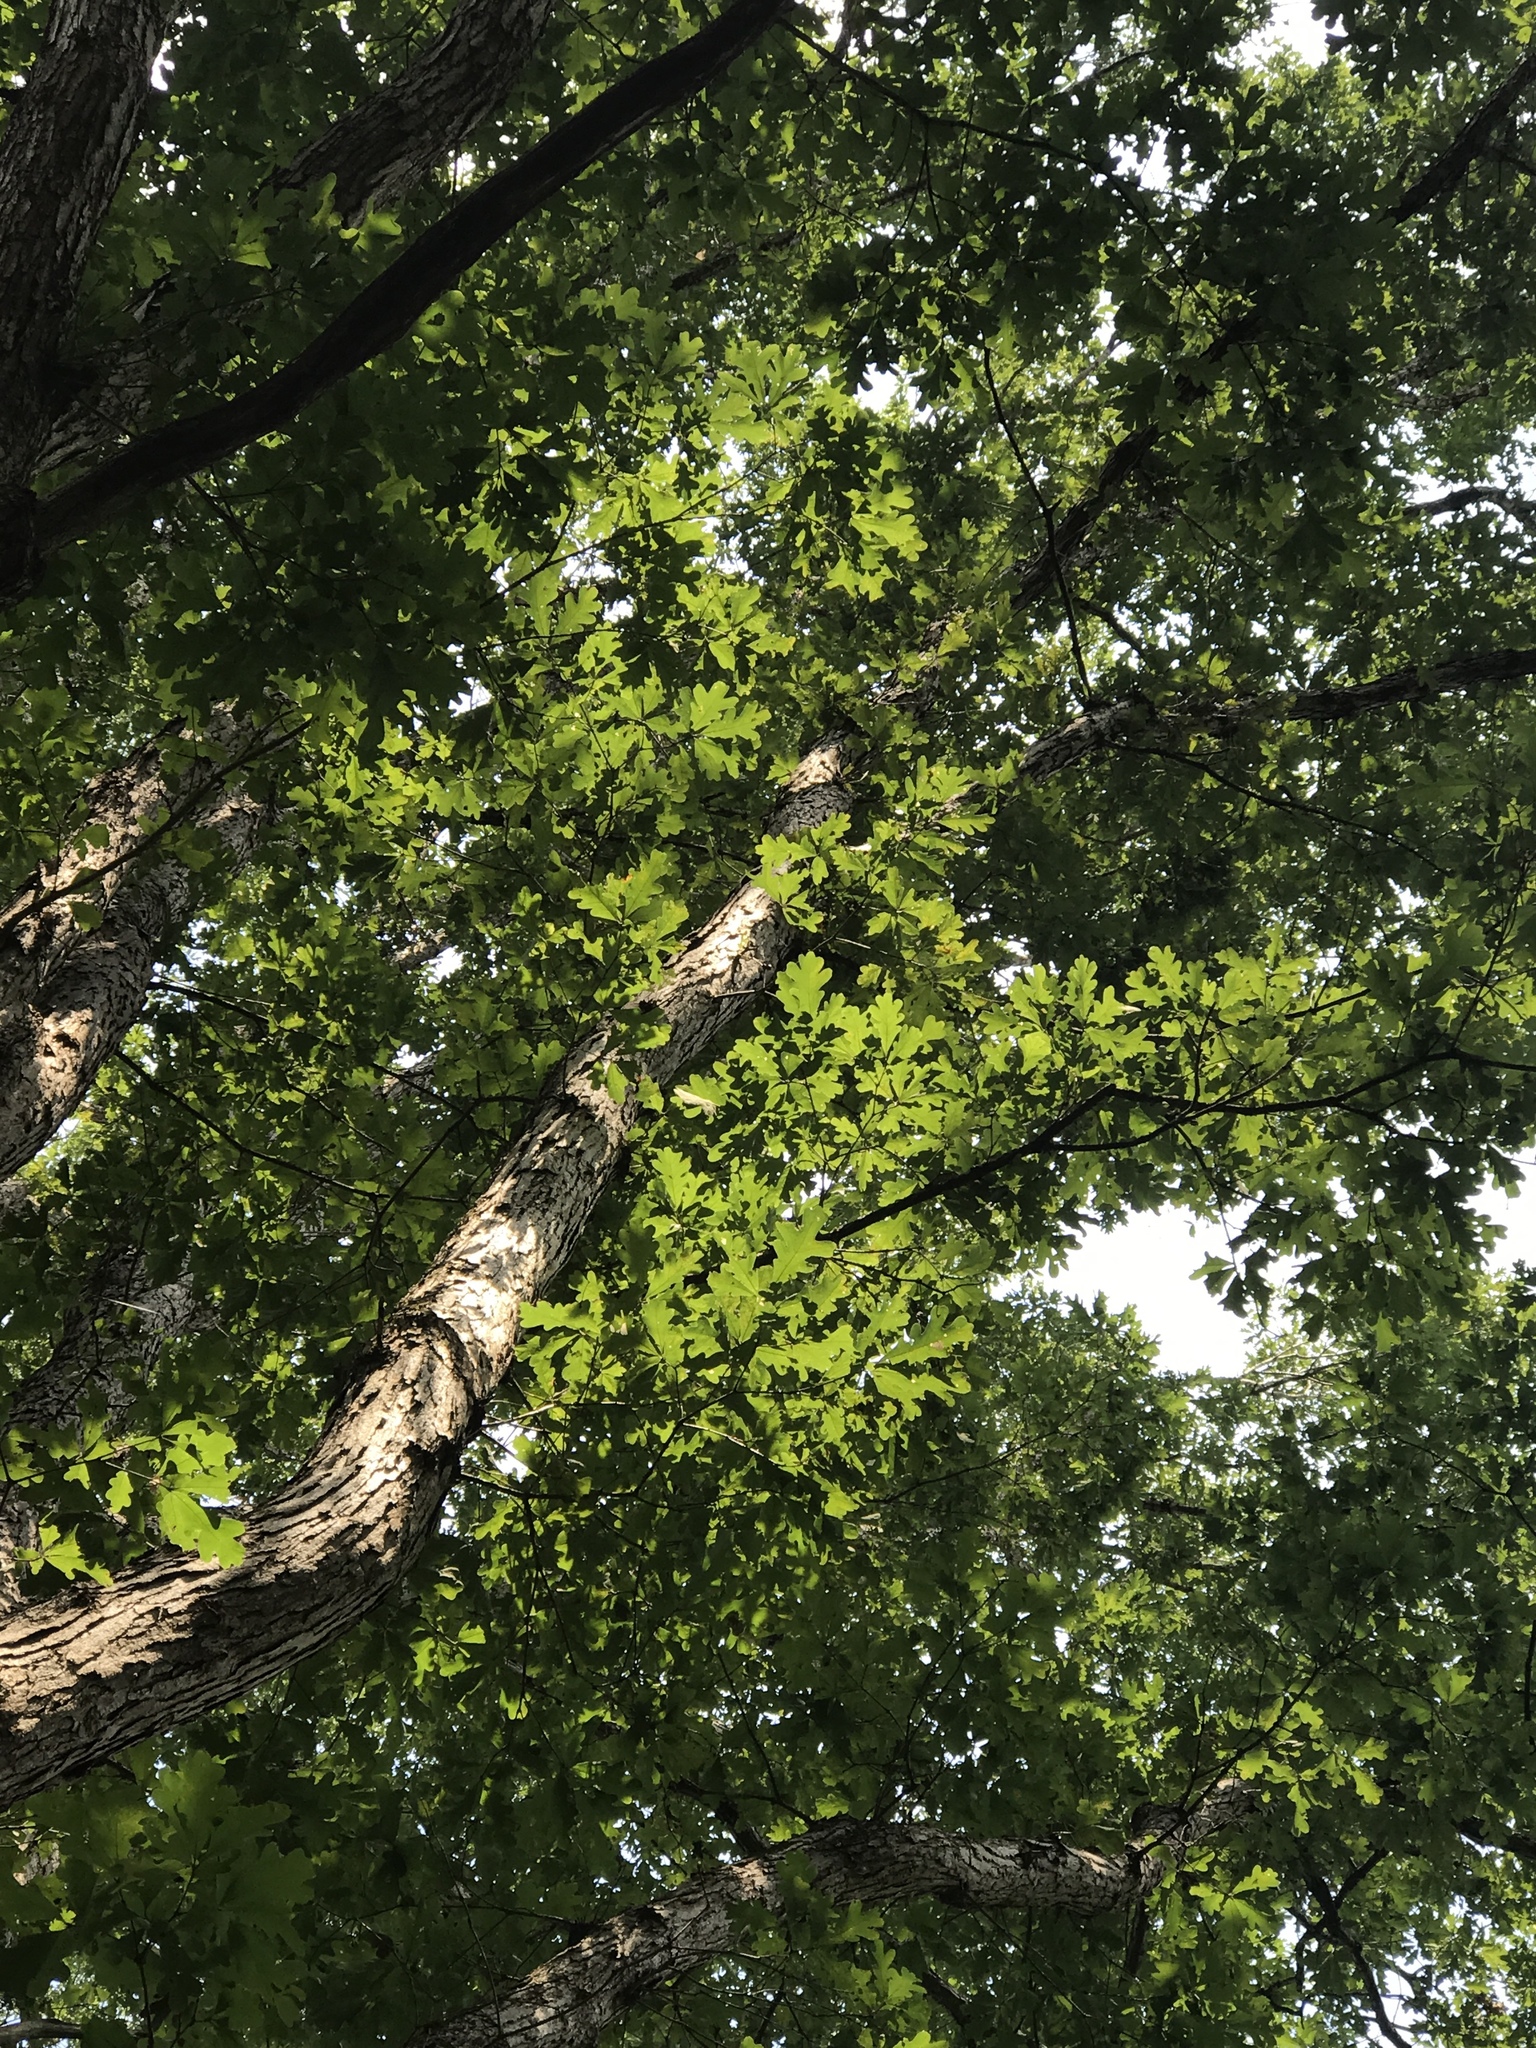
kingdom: Plantae
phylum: Tracheophyta
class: Magnoliopsida
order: Fagales
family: Fagaceae
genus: Quercus
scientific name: Quercus alba
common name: White oak
